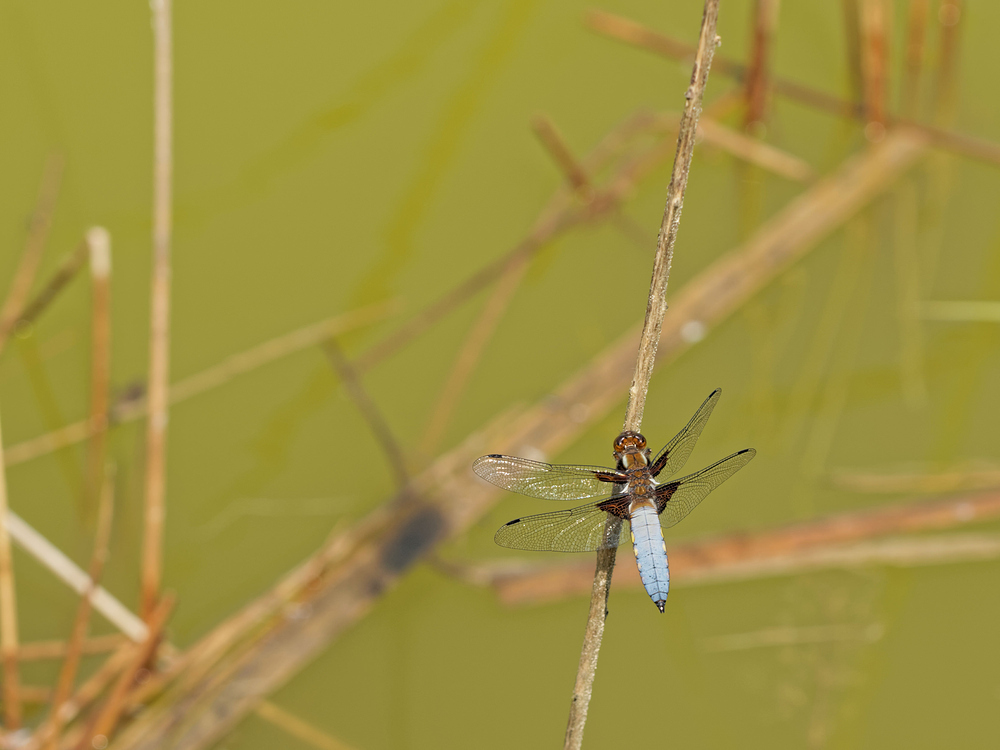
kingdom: Animalia
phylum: Arthropoda
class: Insecta
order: Odonata
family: Libellulidae
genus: Libellula
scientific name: Libellula depressa
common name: Broad-bodied chaser
